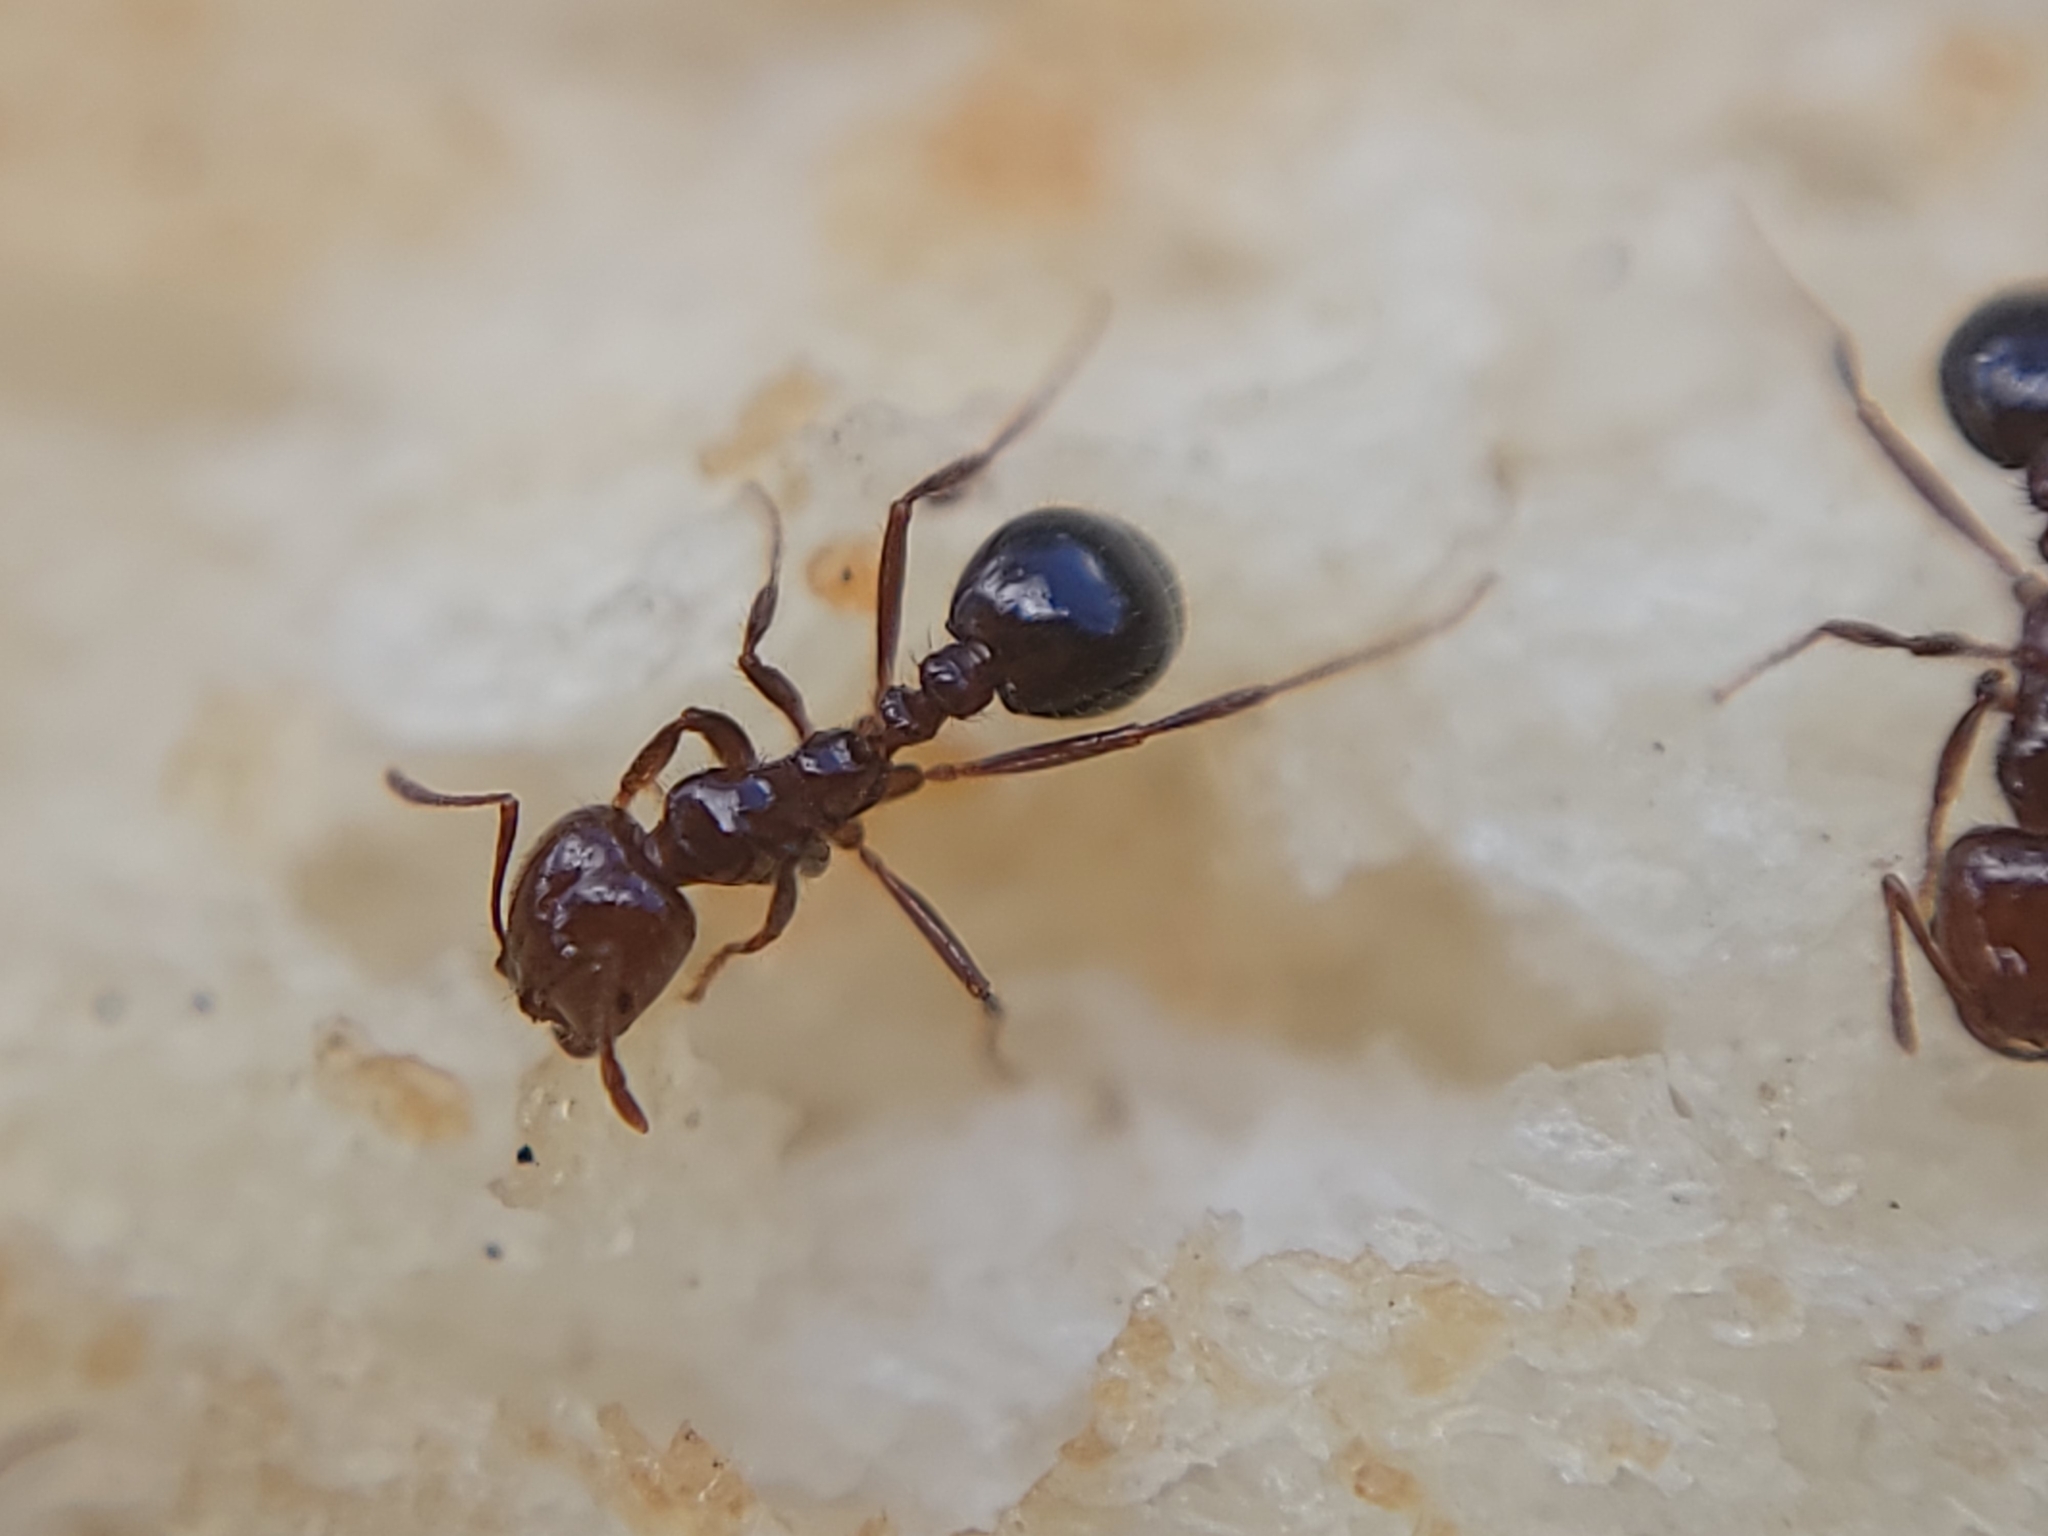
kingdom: Animalia
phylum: Arthropoda
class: Insecta
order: Hymenoptera
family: Formicidae
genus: Solenopsis
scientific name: Solenopsis invicta
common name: Red imported fire ant
